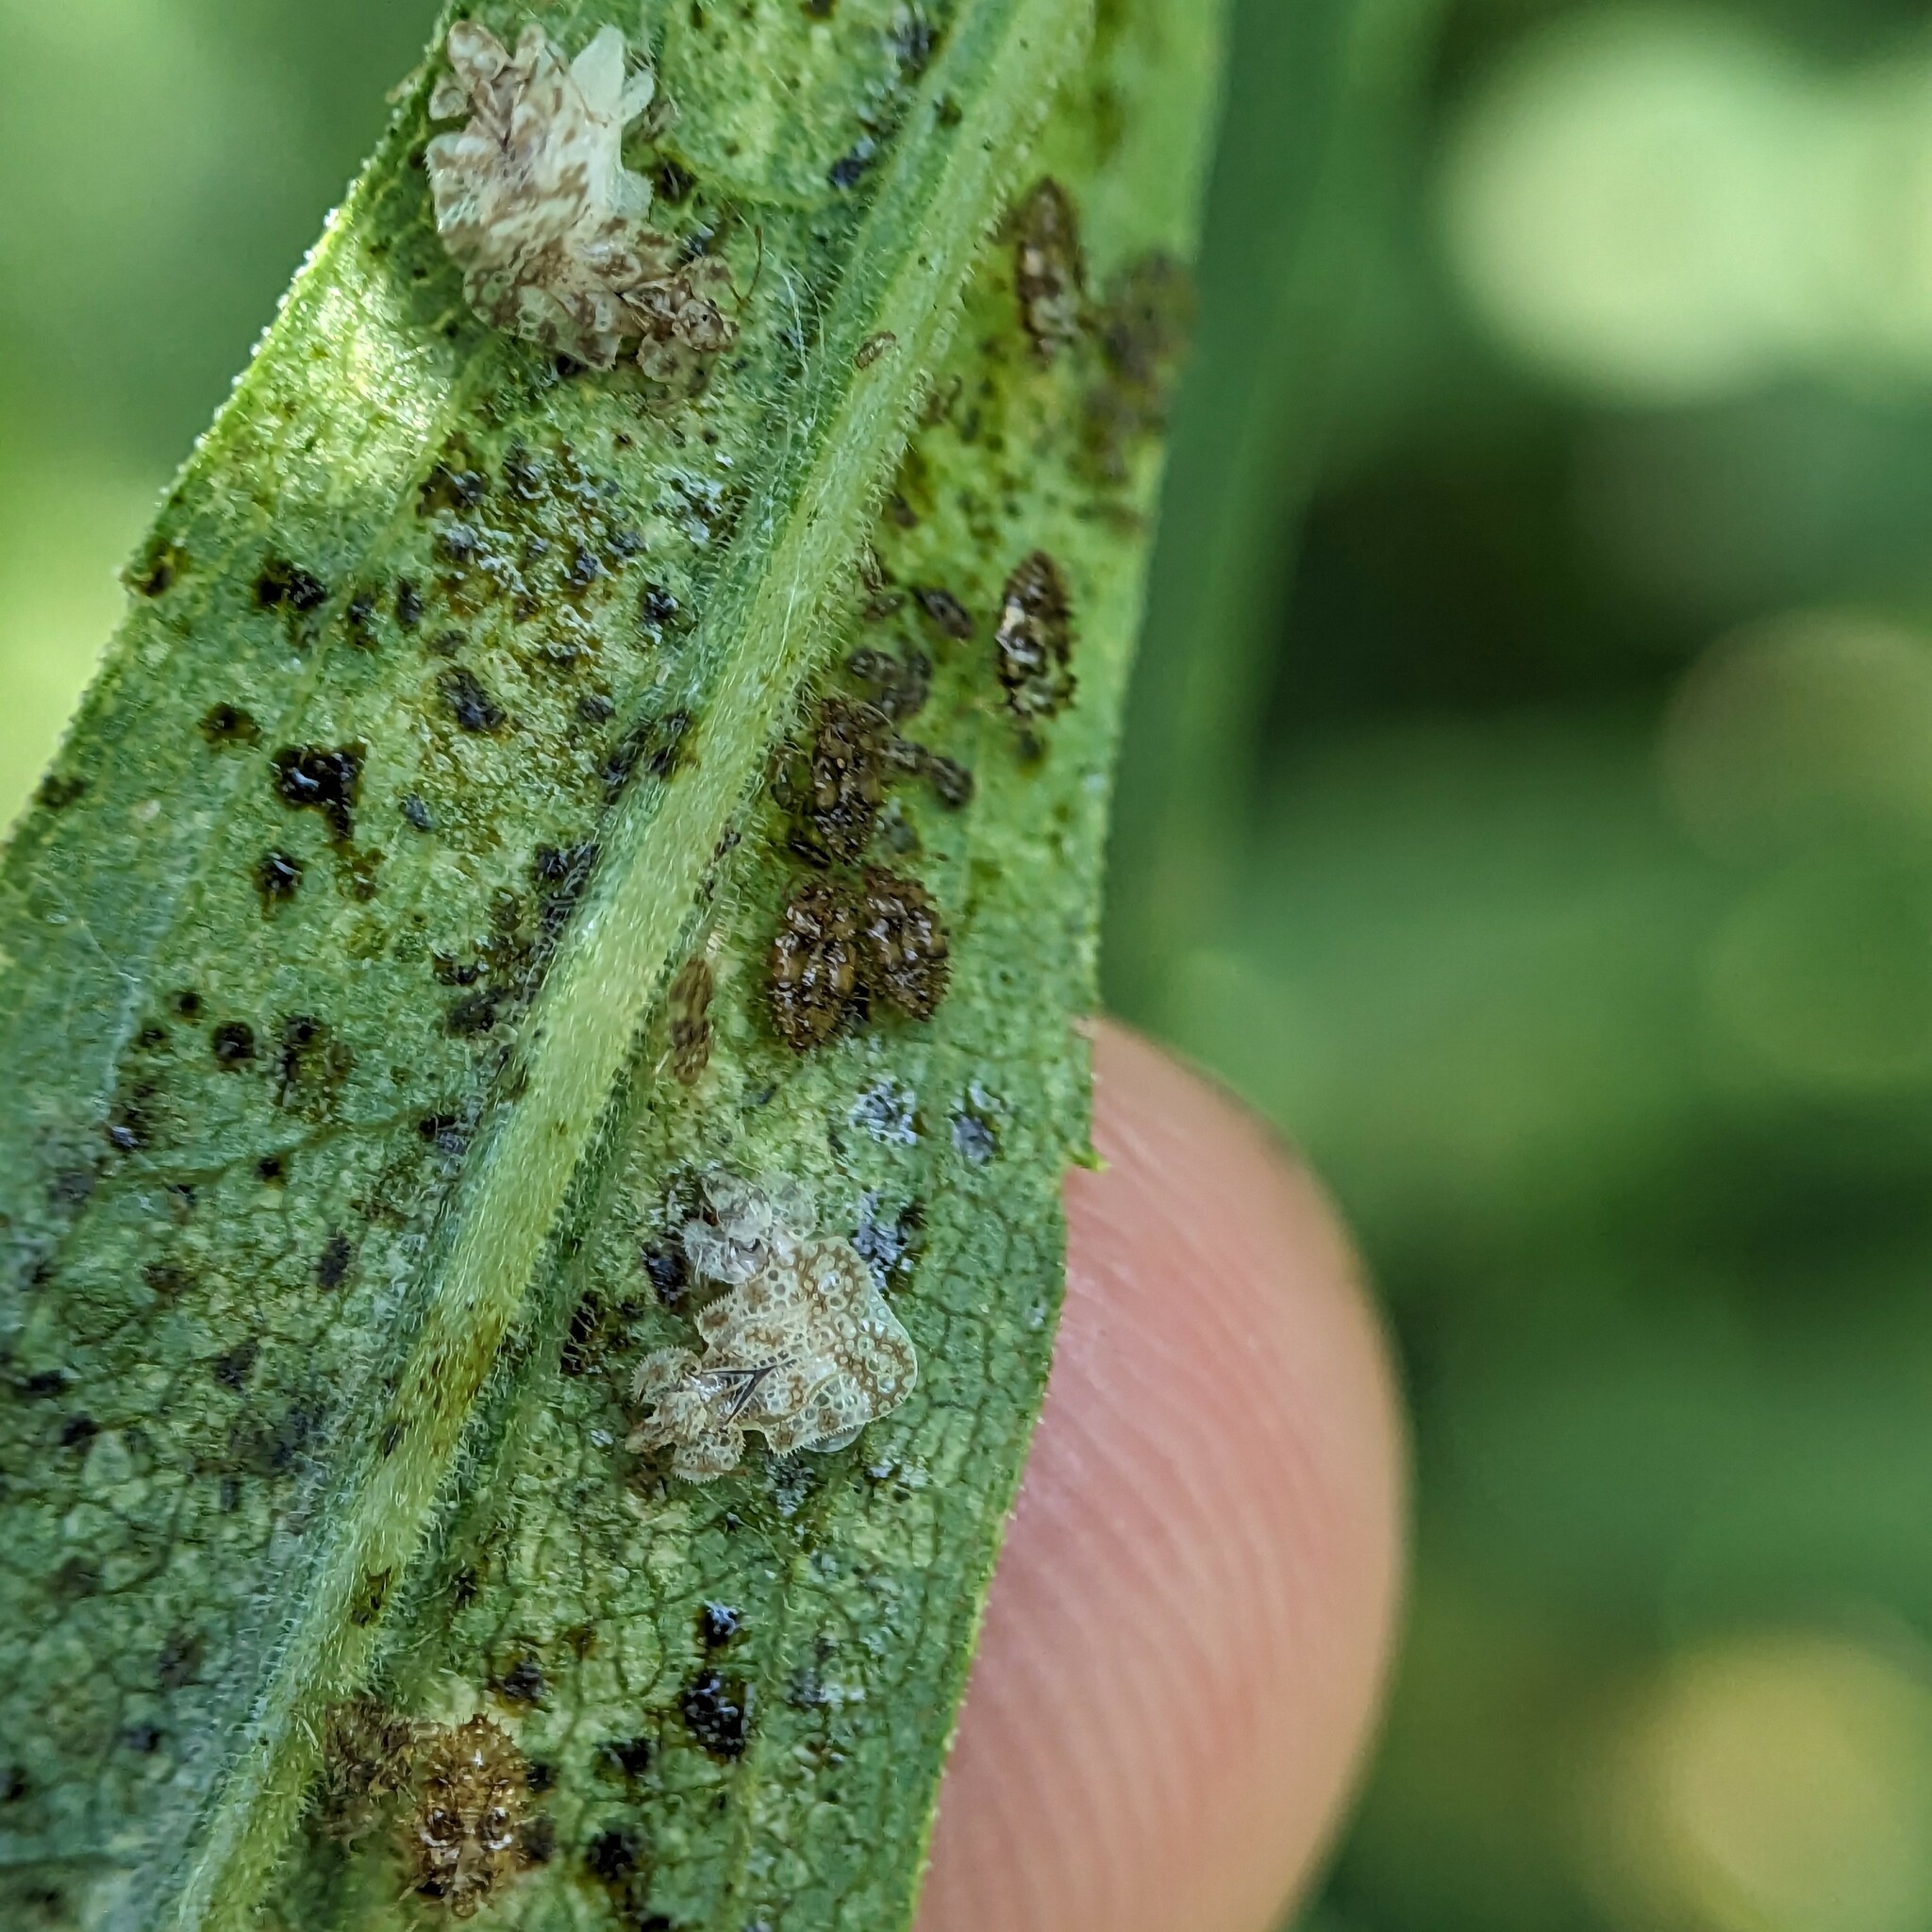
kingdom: Animalia
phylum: Arthropoda
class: Insecta
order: Hemiptera
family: Tingidae
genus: Corythucha
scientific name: Corythucha marmorata
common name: Chrysanthemum lace bug
